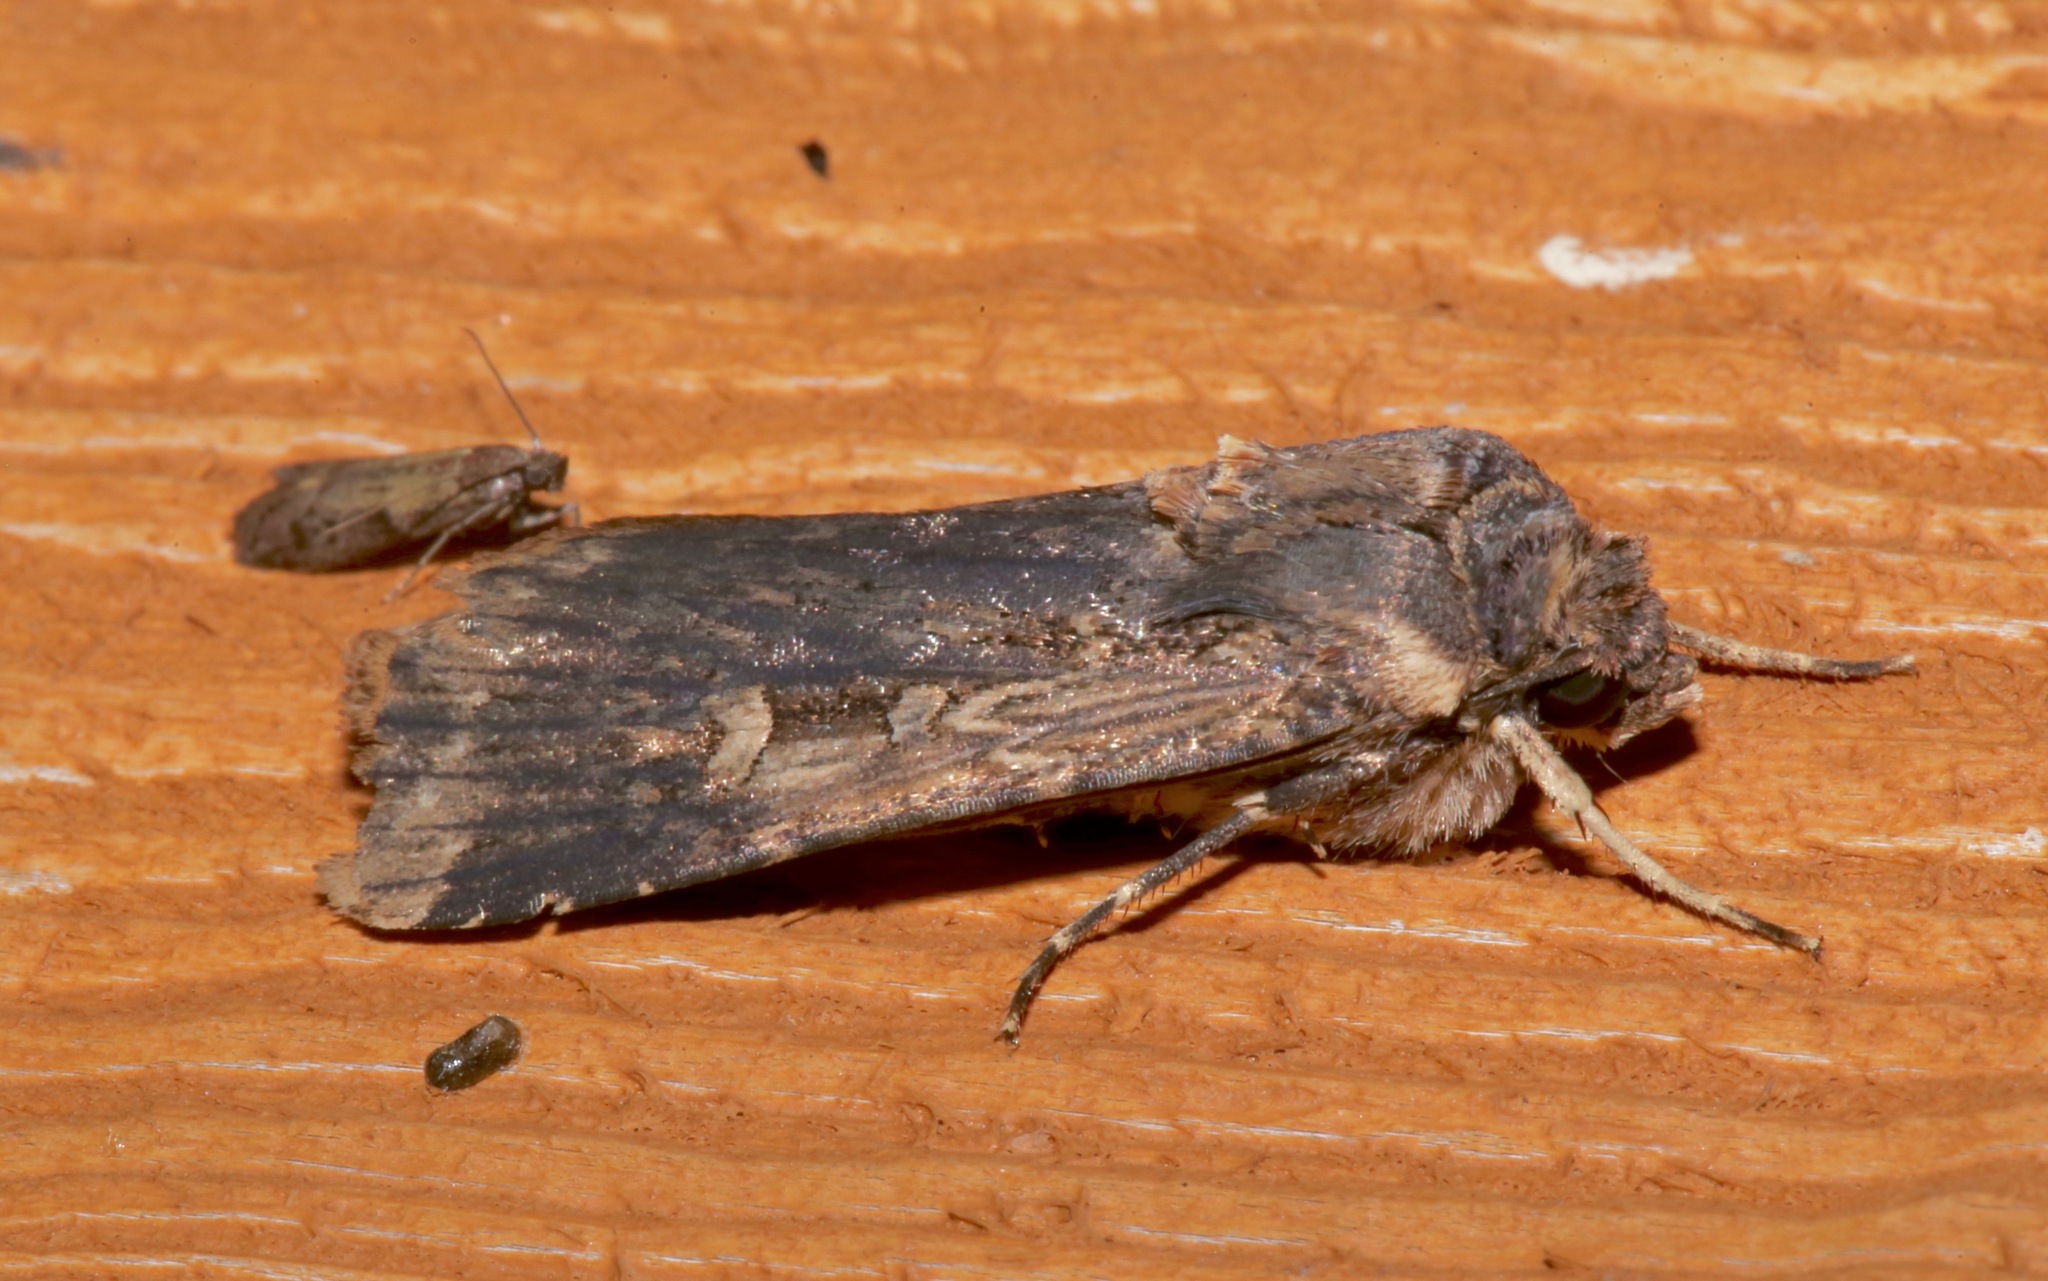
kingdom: Animalia
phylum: Arthropoda
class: Insecta
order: Lepidoptera
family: Noctuidae
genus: Feltia
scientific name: Feltia subterranea
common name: Granulate cutworm
